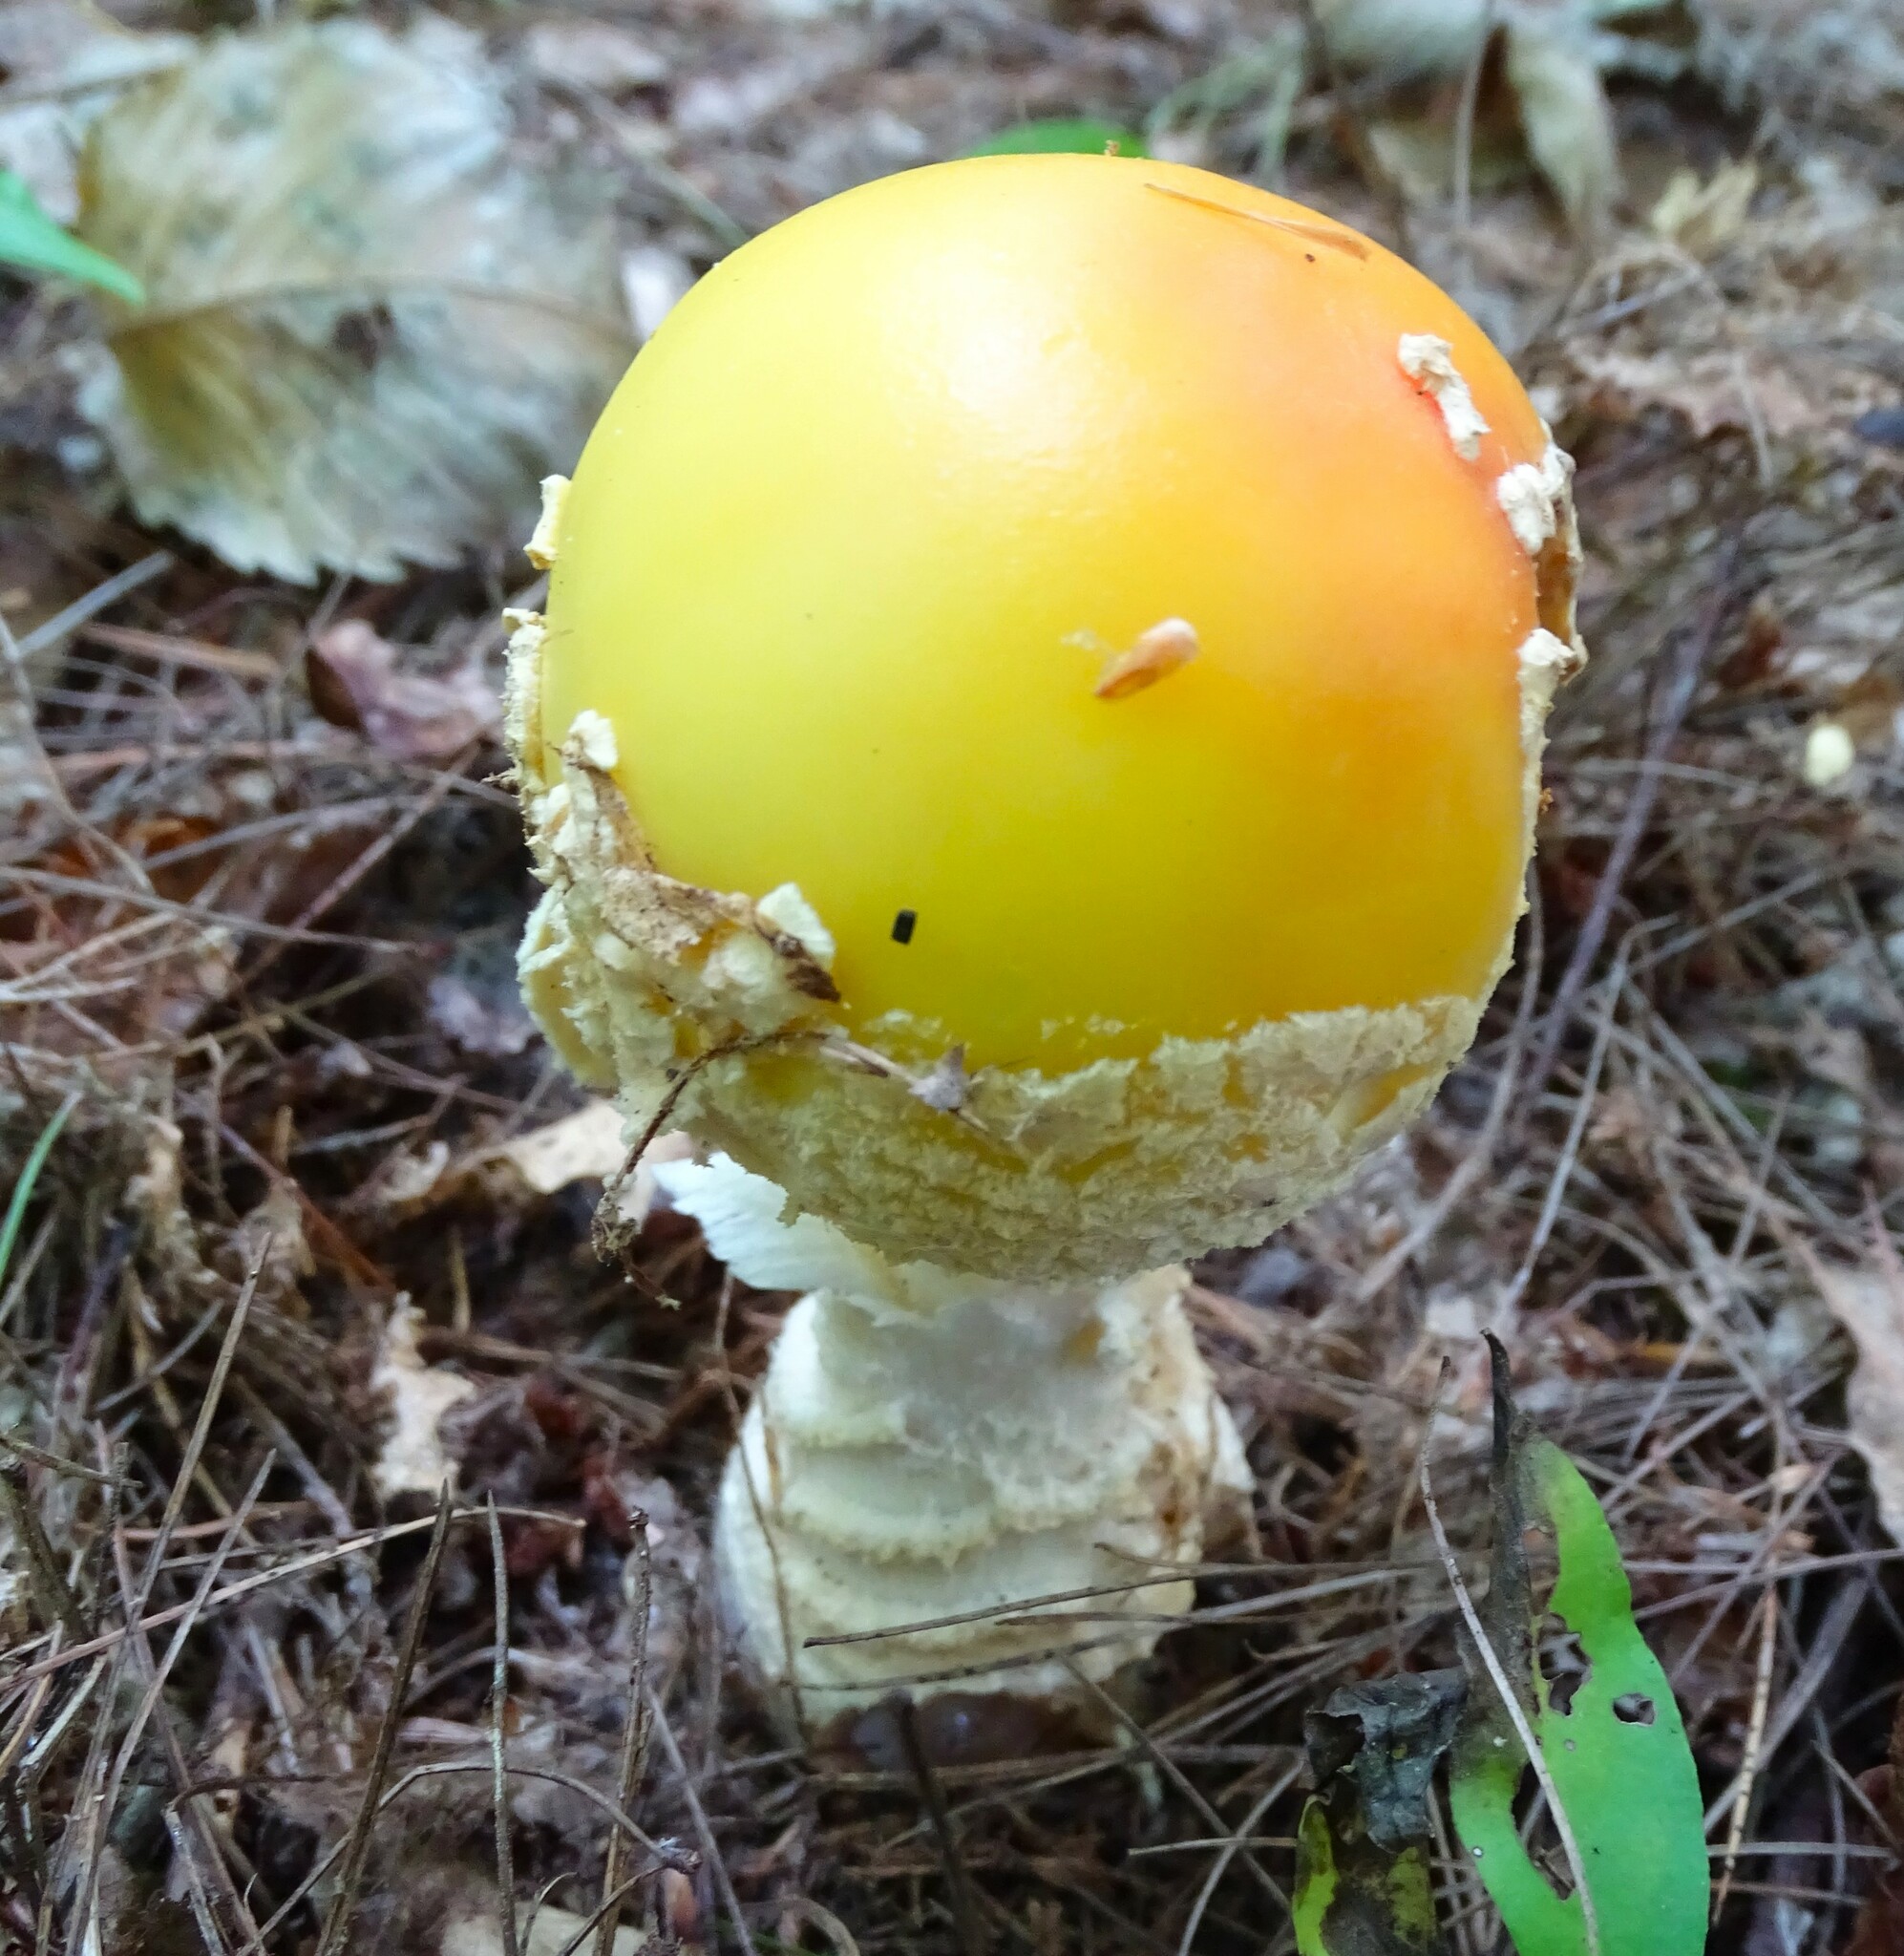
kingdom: Fungi
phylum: Basidiomycota
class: Agaricomycetes
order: Agaricales
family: Amanitaceae
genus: Amanita
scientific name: Amanita muscaria
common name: Fly agaric
